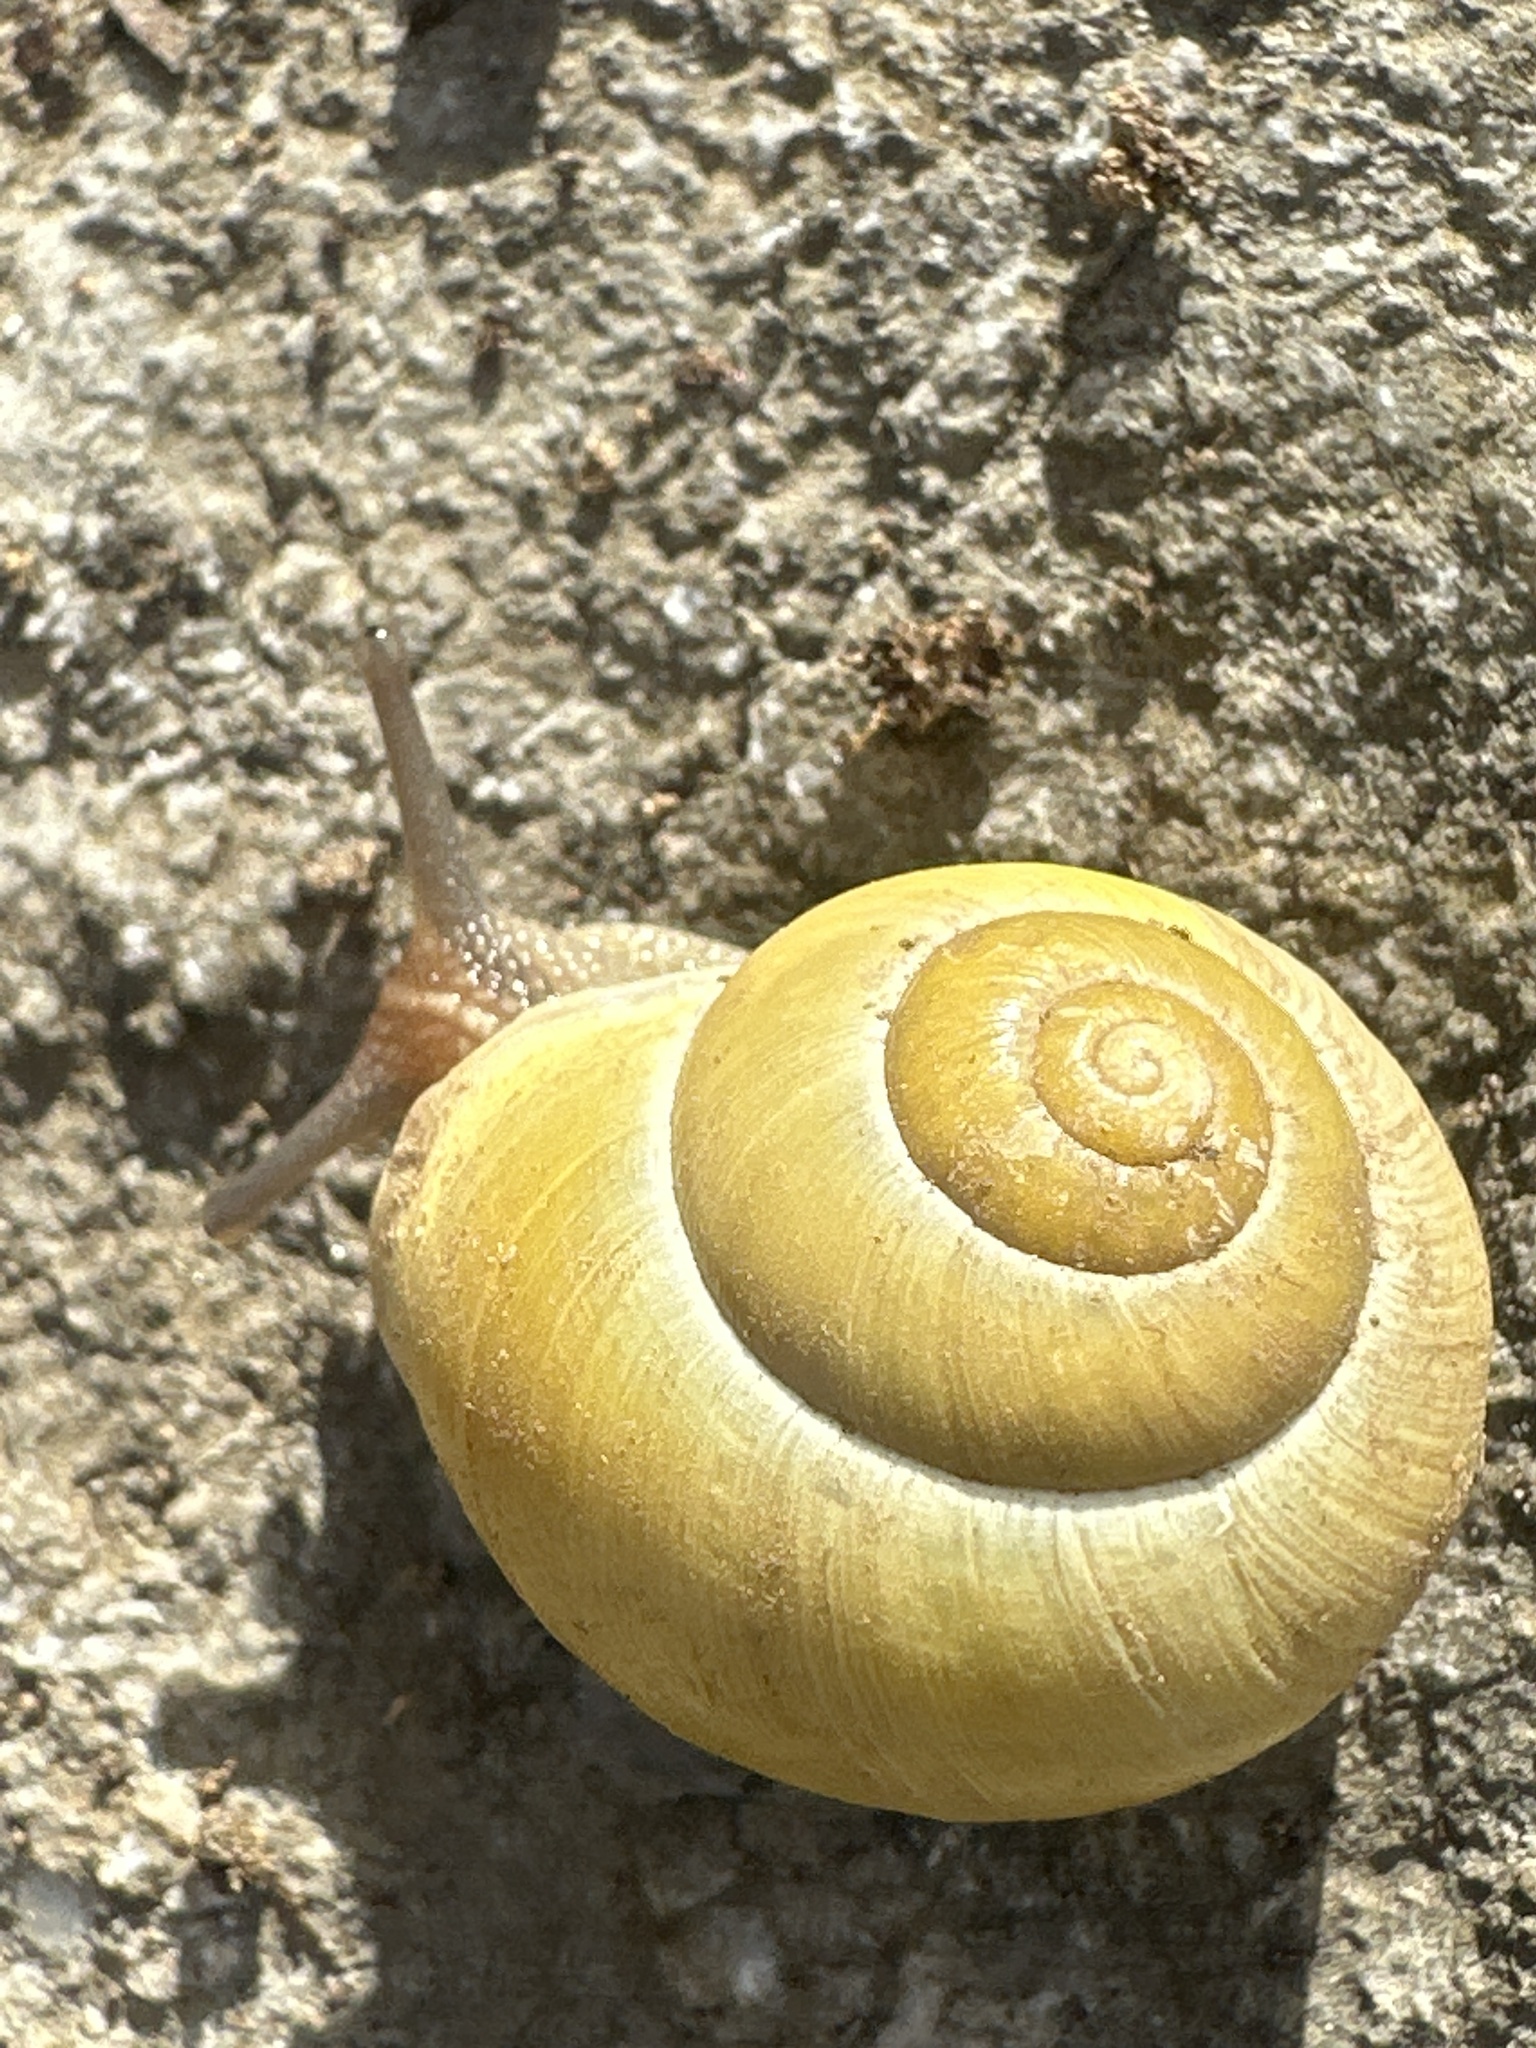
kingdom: Animalia
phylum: Mollusca
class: Gastropoda
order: Stylommatophora
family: Helicidae
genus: Cepaea
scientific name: Cepaea hortensis
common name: White-lip gardensnail
